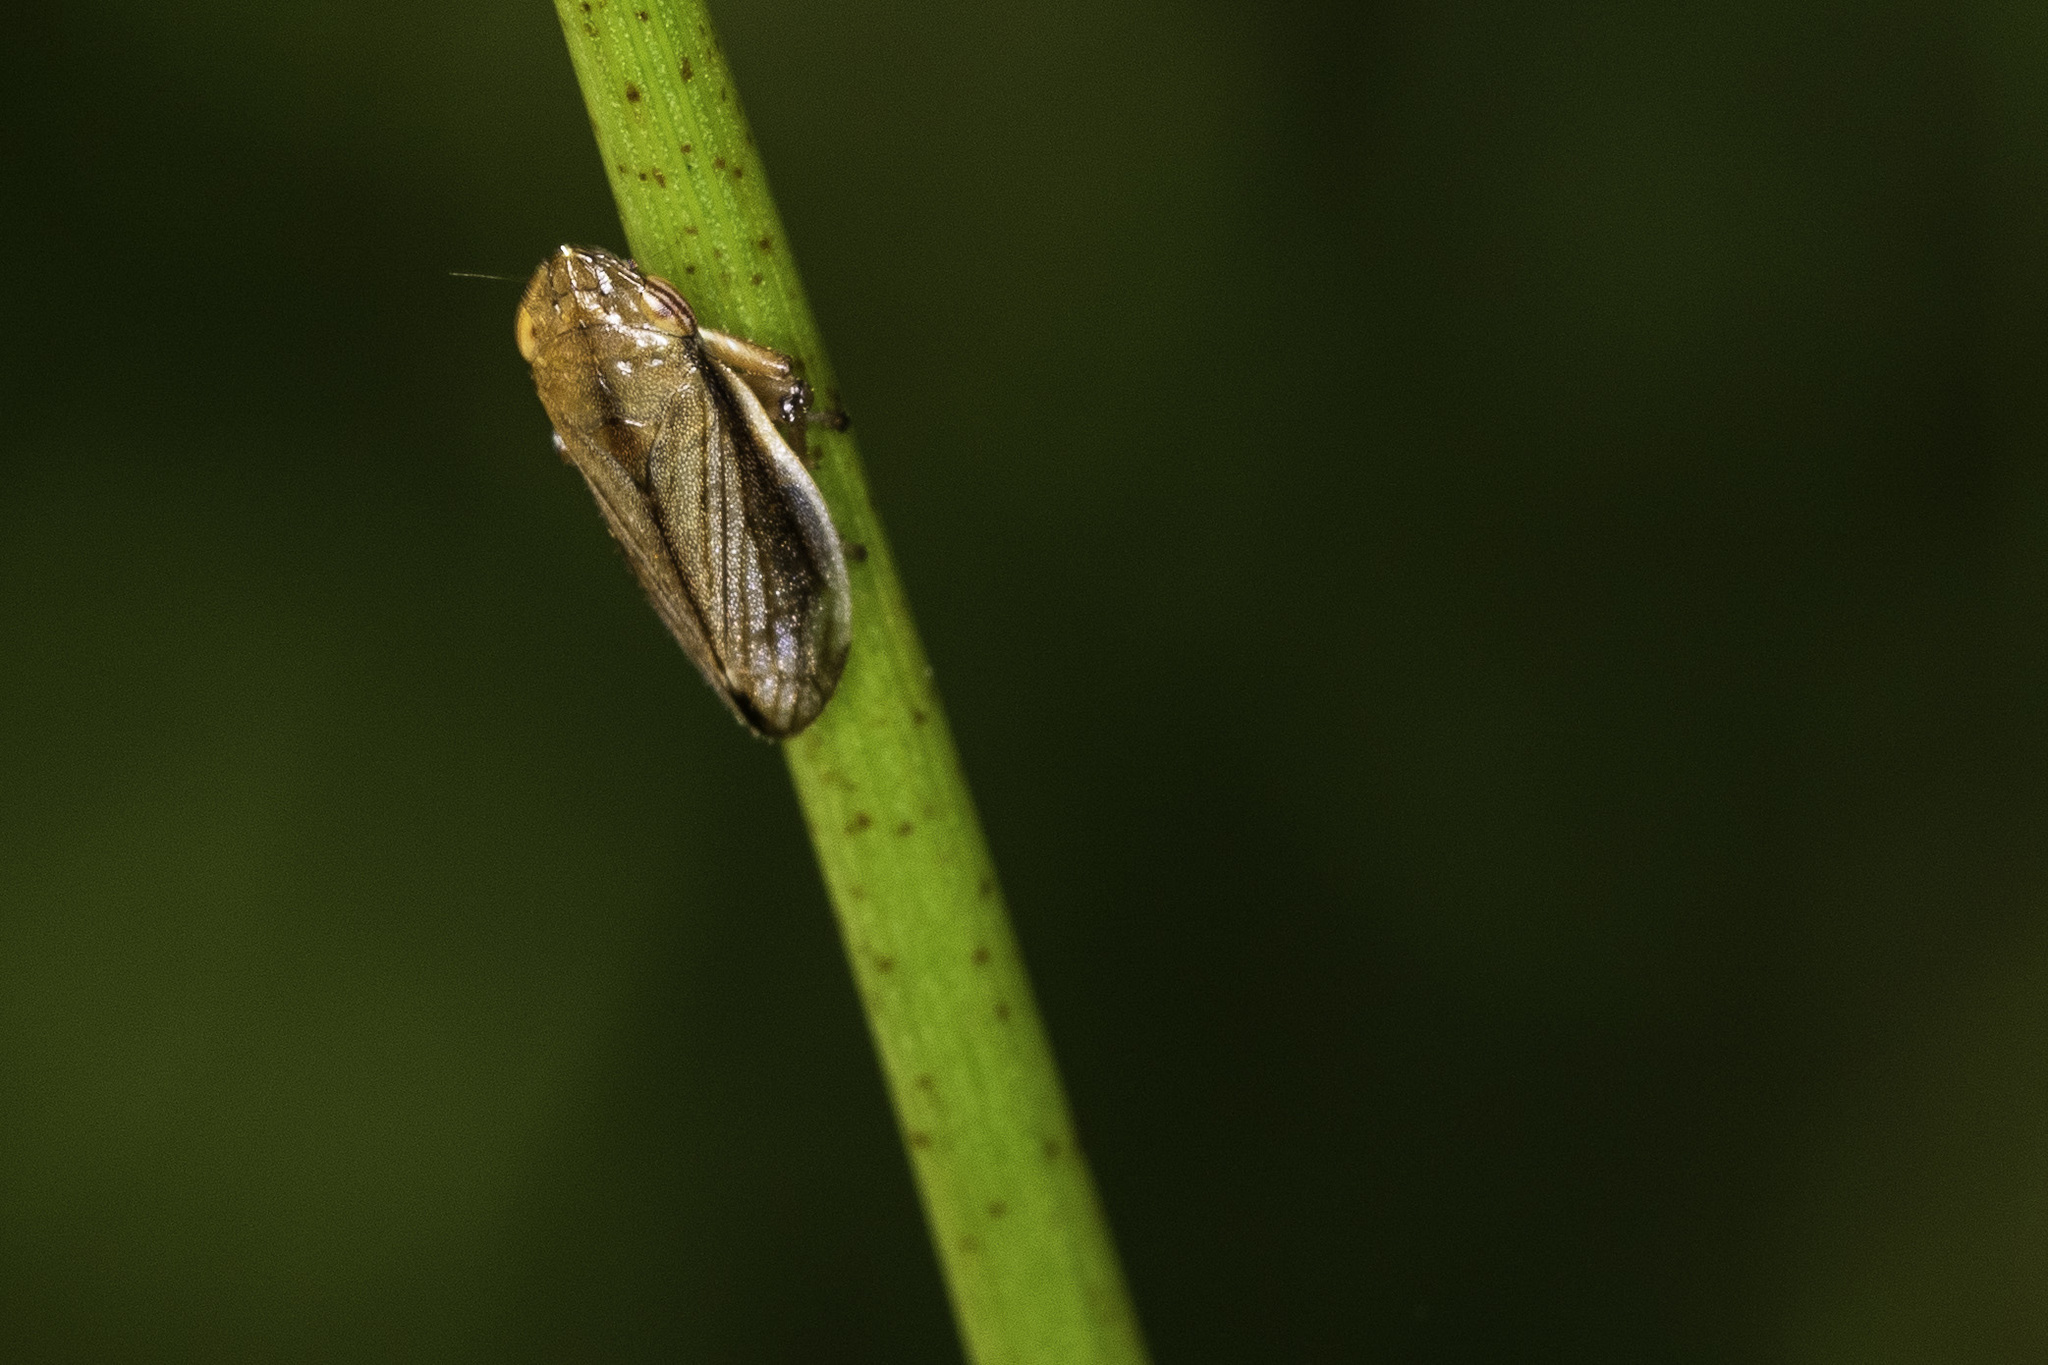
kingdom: Animalia
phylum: Arthropoda
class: Insecta
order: Hemiptera
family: Aphrophoridae
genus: Neophilaenus
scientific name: Neophilaenus lineatus
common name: Spittlebug
